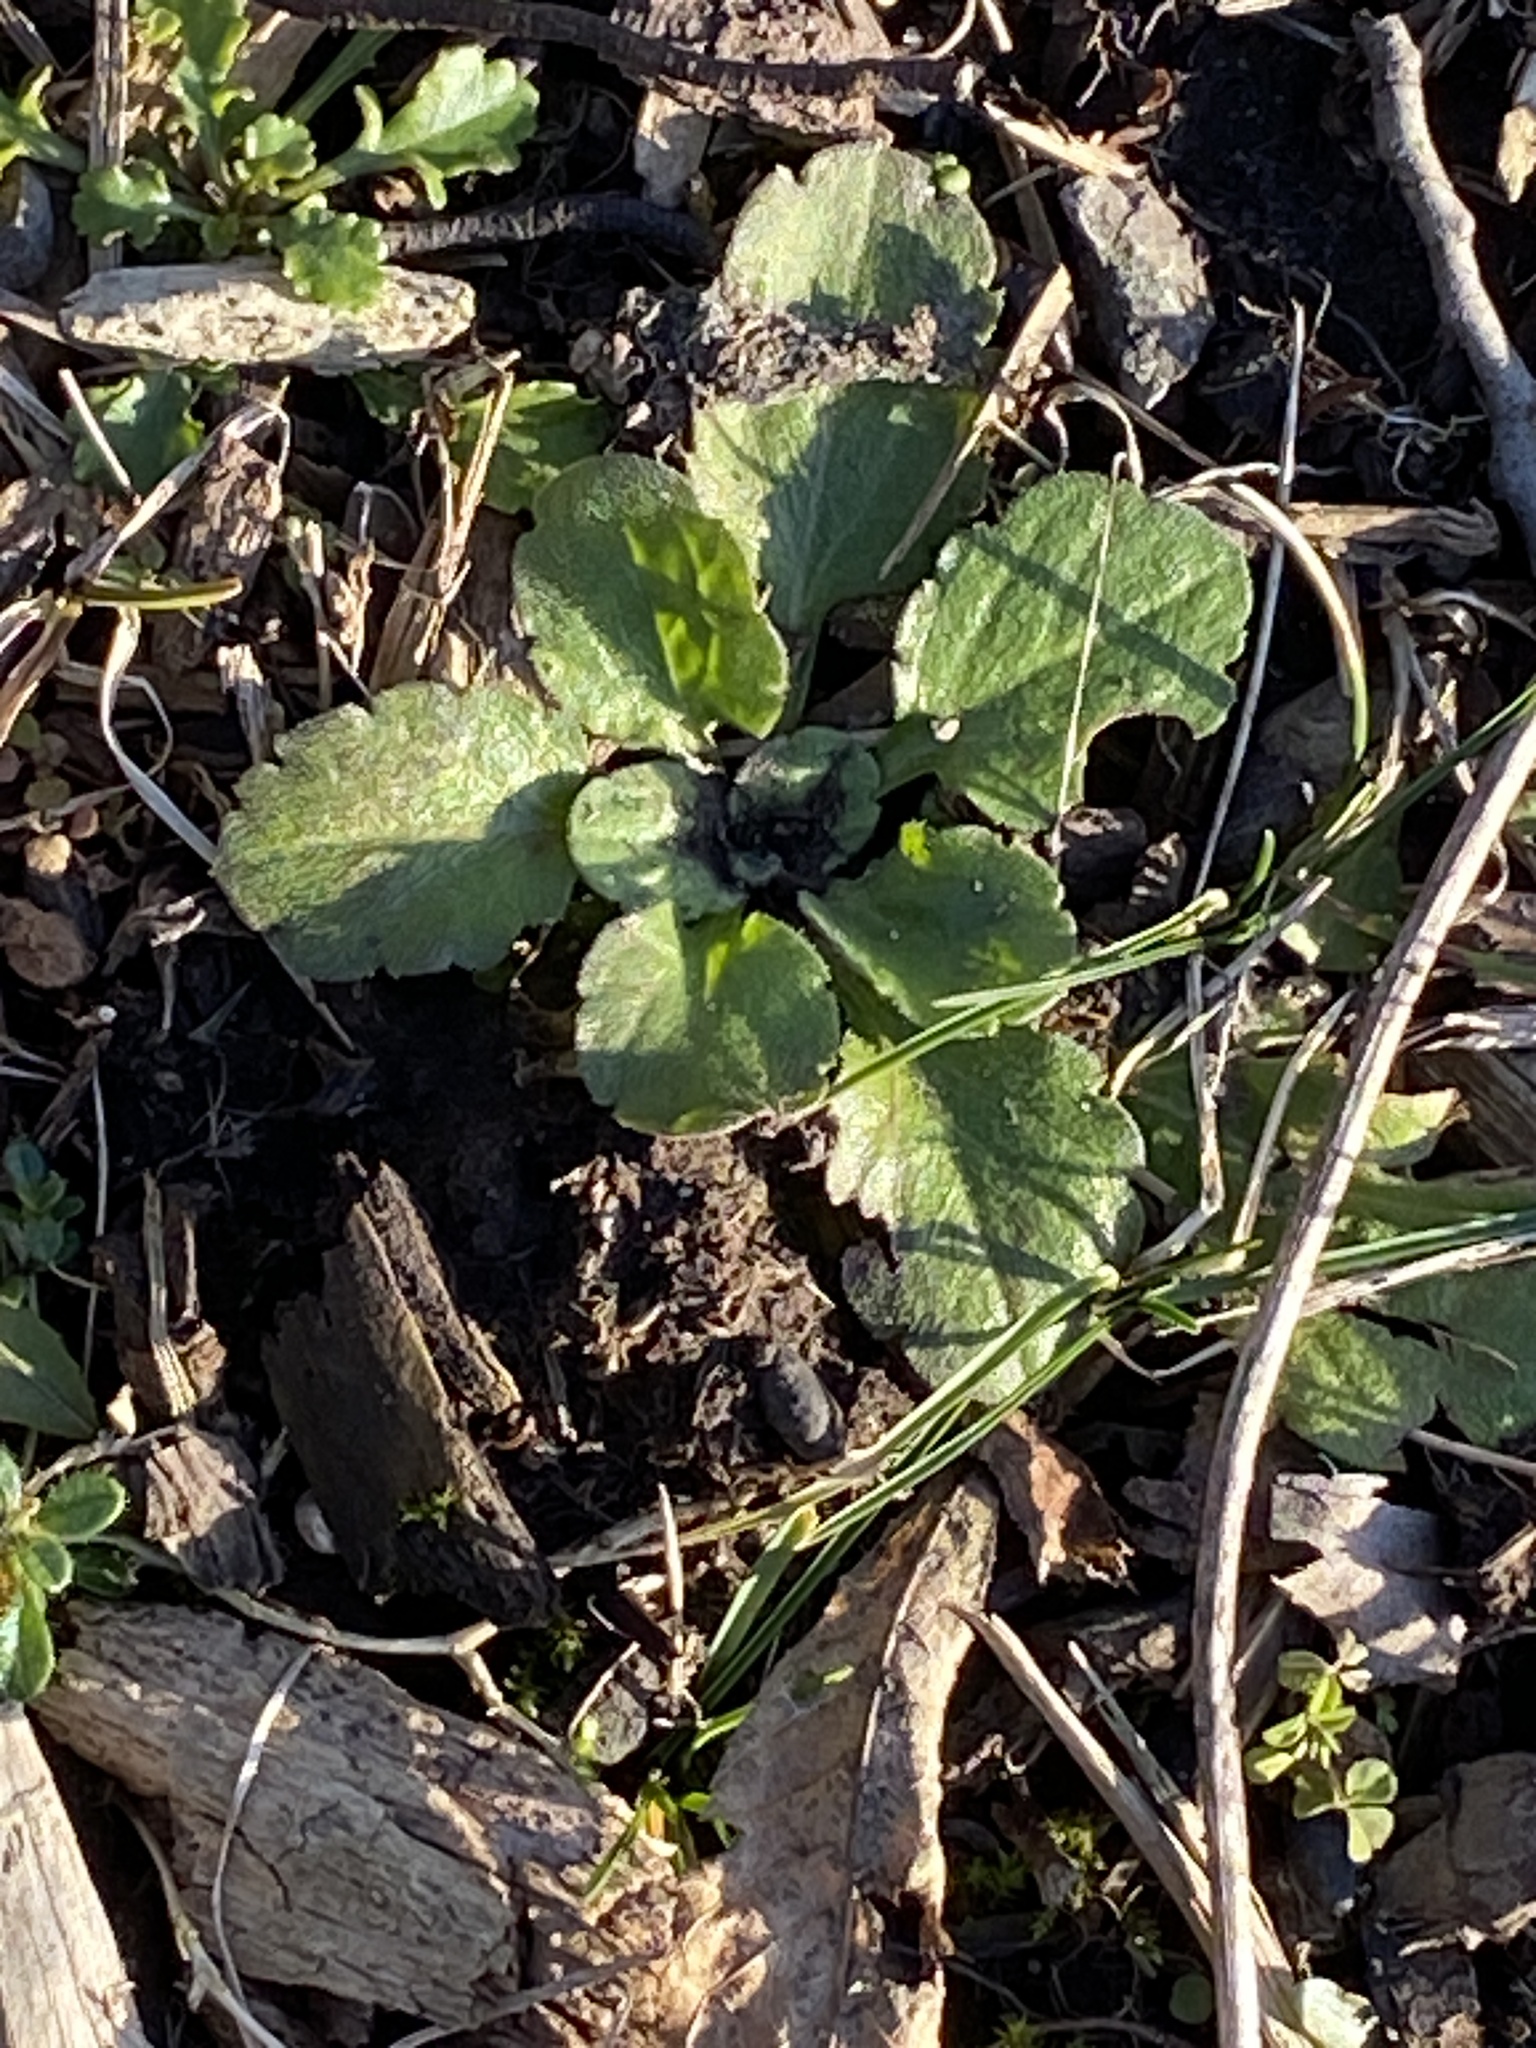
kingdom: Plantae
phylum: Tracheophyta
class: Magnoliopsida
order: Asterales
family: Asteraceae
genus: Erigeron
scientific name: Erigeron annuus
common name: Tall fleabane
